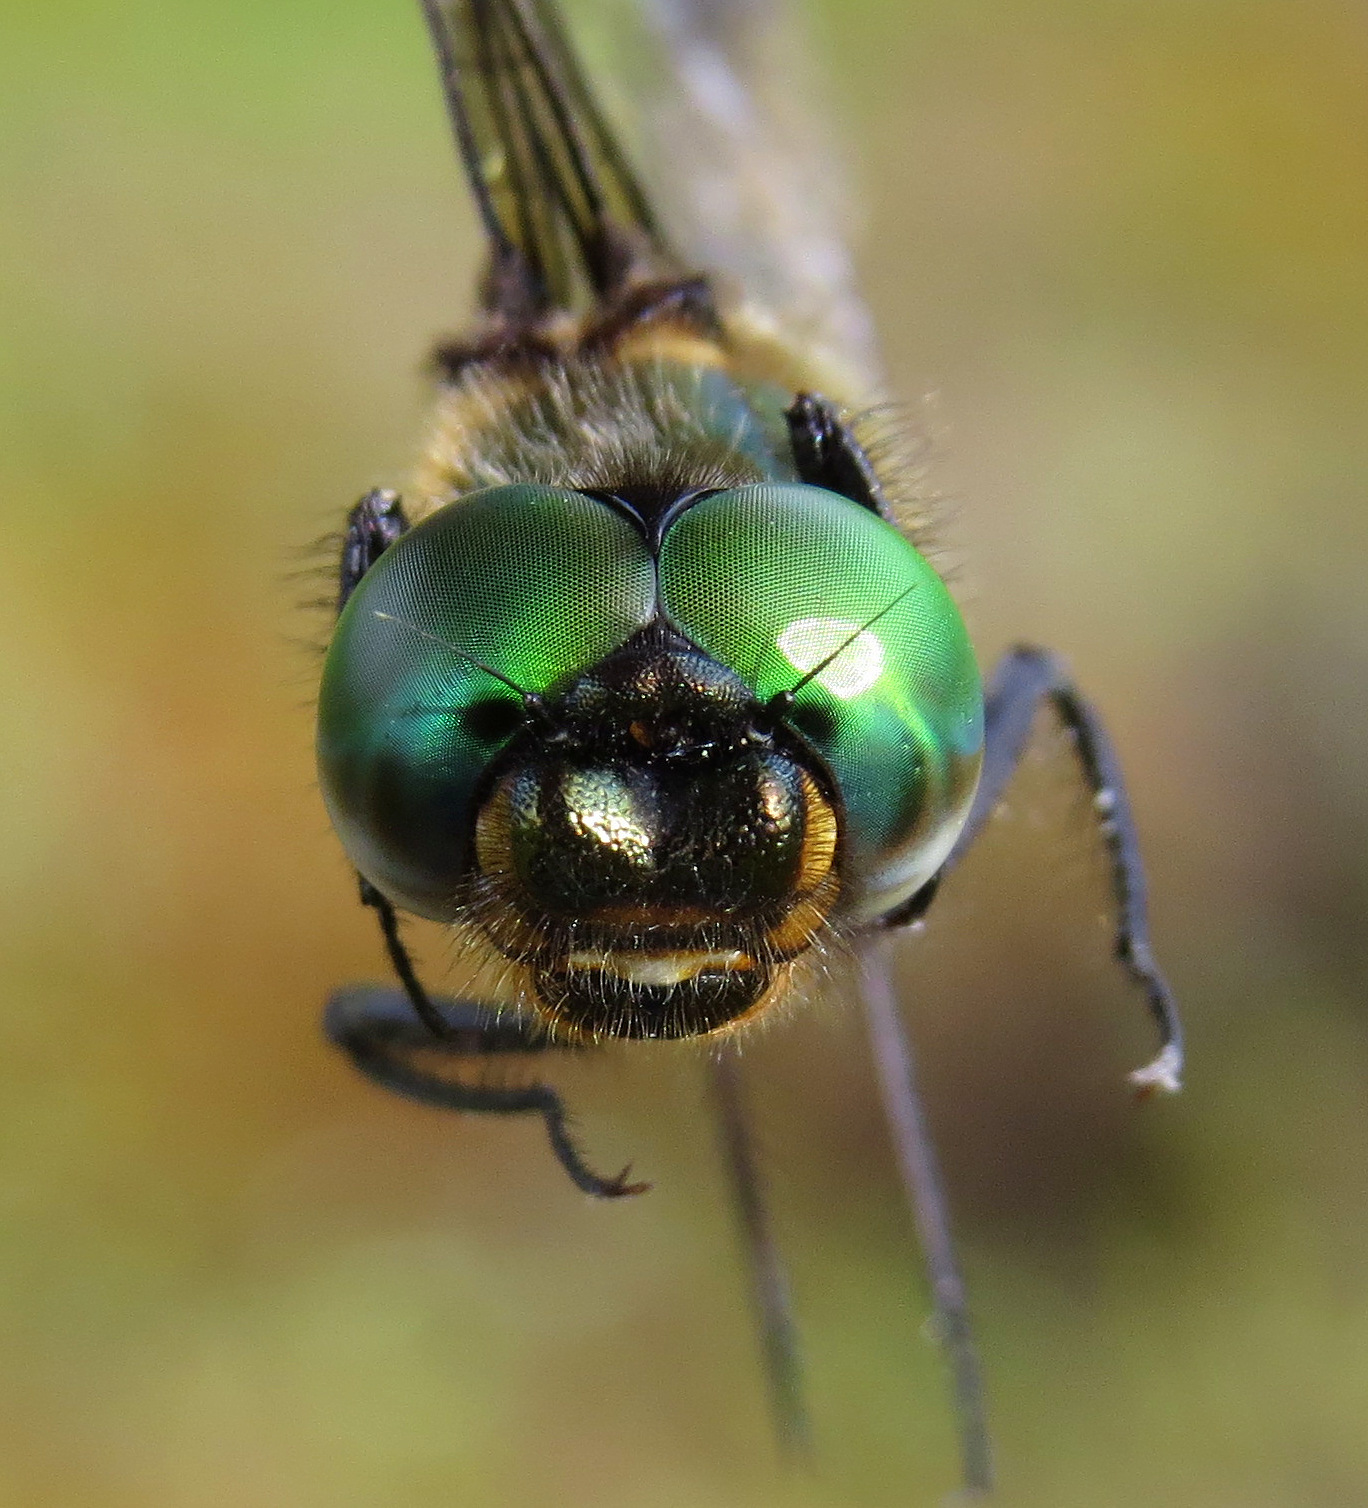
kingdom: Animalia
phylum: Arthropoda
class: Insecta
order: Odonata
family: Corduliidae
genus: Somatochlora
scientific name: Somatochlora brevicincta
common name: Quebec emerald
